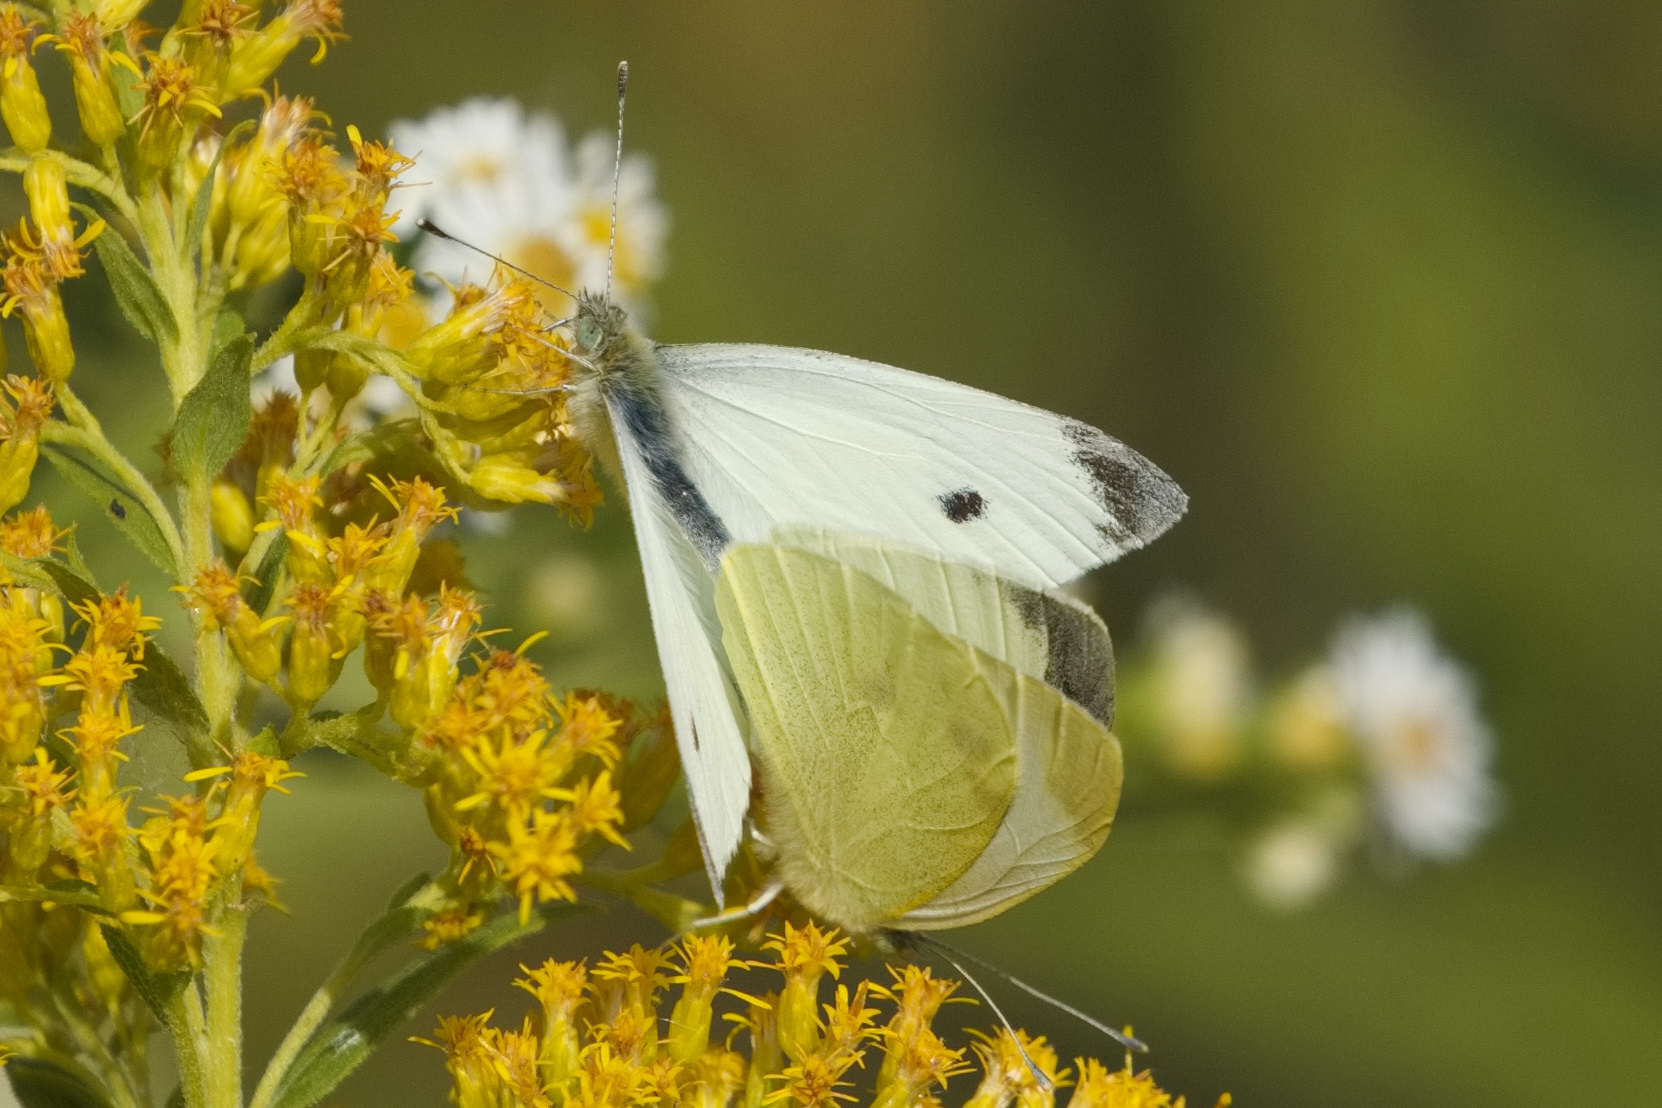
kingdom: Animalia
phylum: Arthropoda
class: Insecta
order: Lepidoptera
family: Pieridae
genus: Pieris
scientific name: Pieris rapae
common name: Small white
